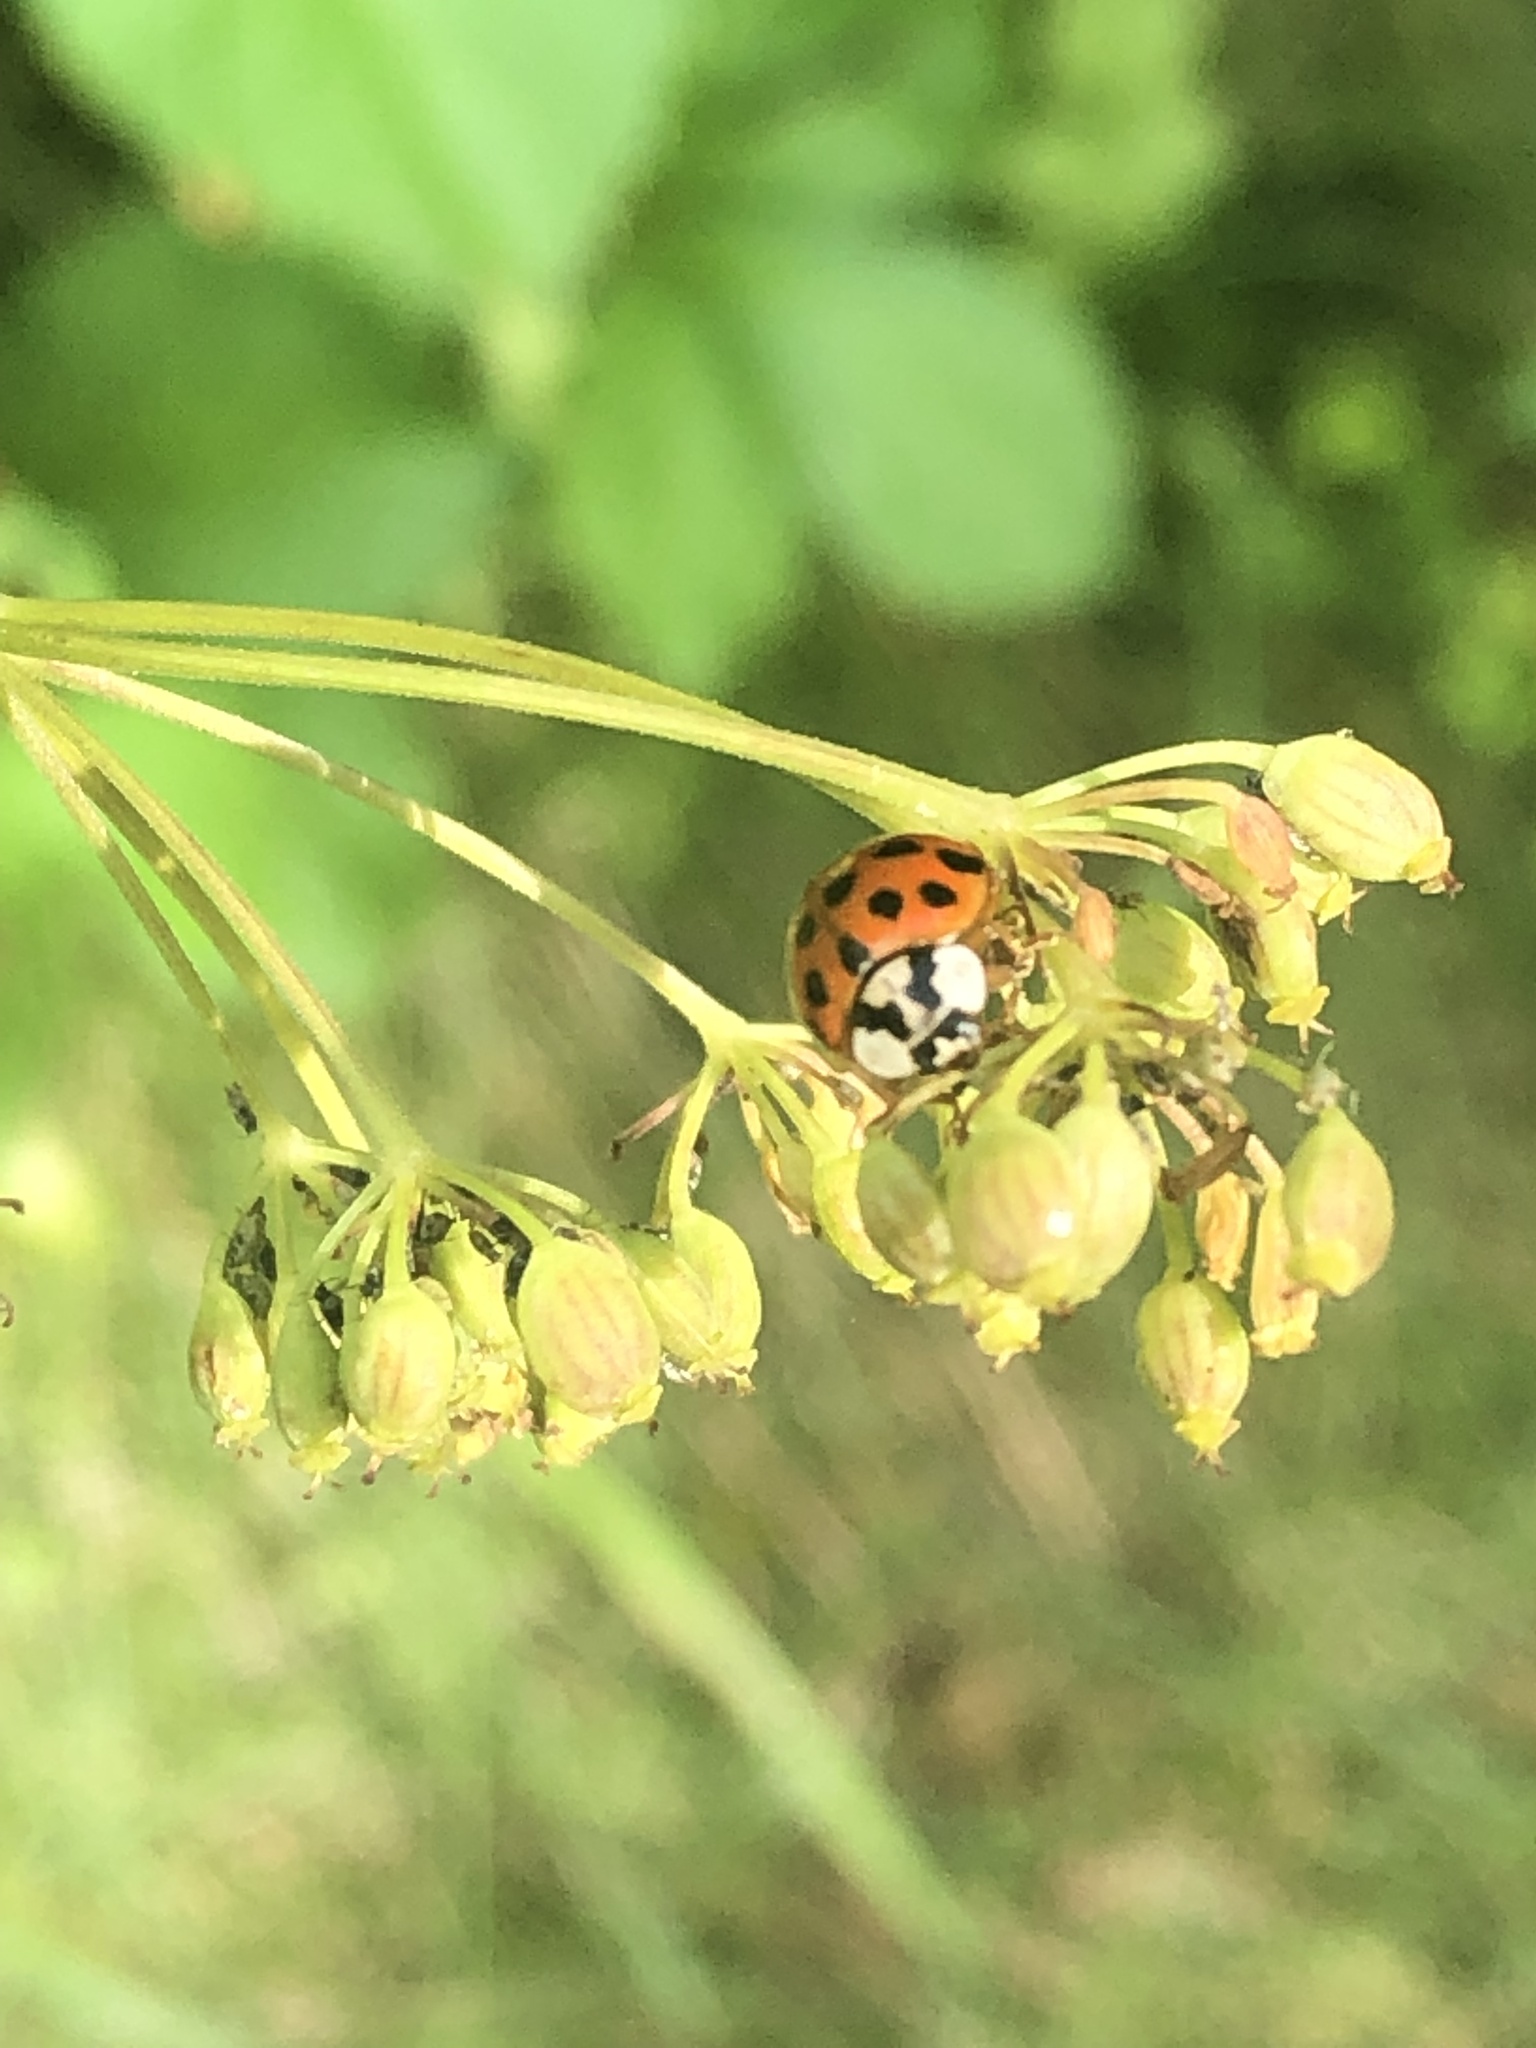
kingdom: Animalia
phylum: Arthropoda
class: Insecta
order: Coleoptera
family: Coccinellidae
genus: Harmonia
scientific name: Harmonia axyridis
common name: Harlequin ladybird
